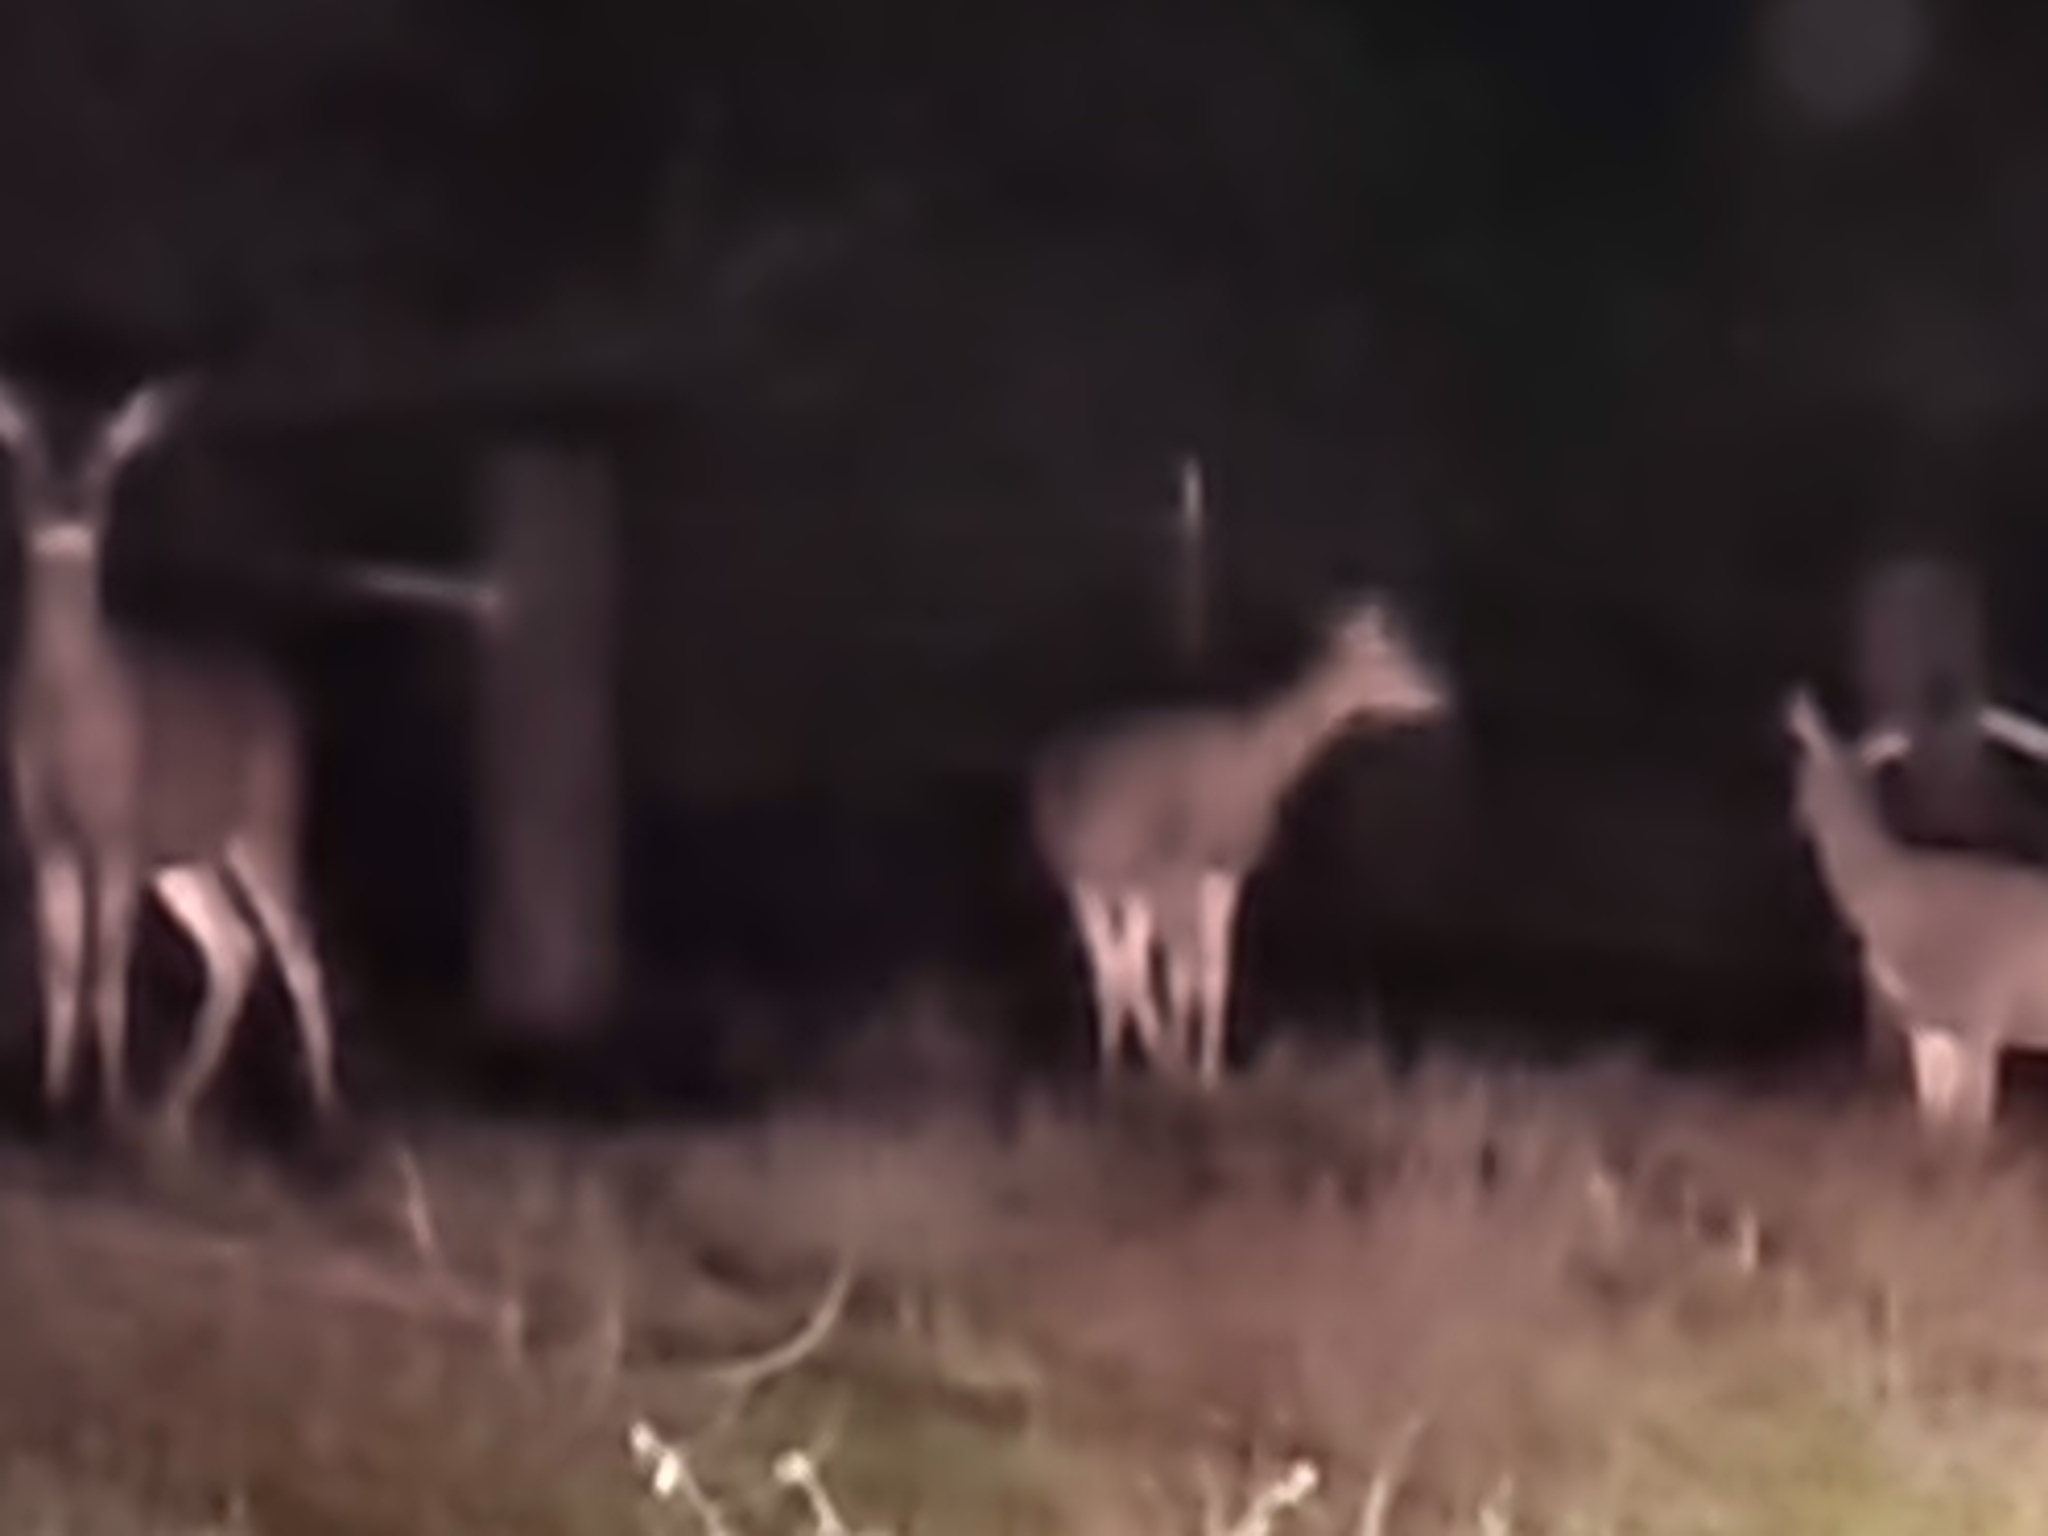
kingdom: Animalia
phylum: Chordata
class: Mammalia
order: Artiodactyla
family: Cervidae
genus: Odocoileus
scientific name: Odocoileus hemionus
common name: Mule deer
